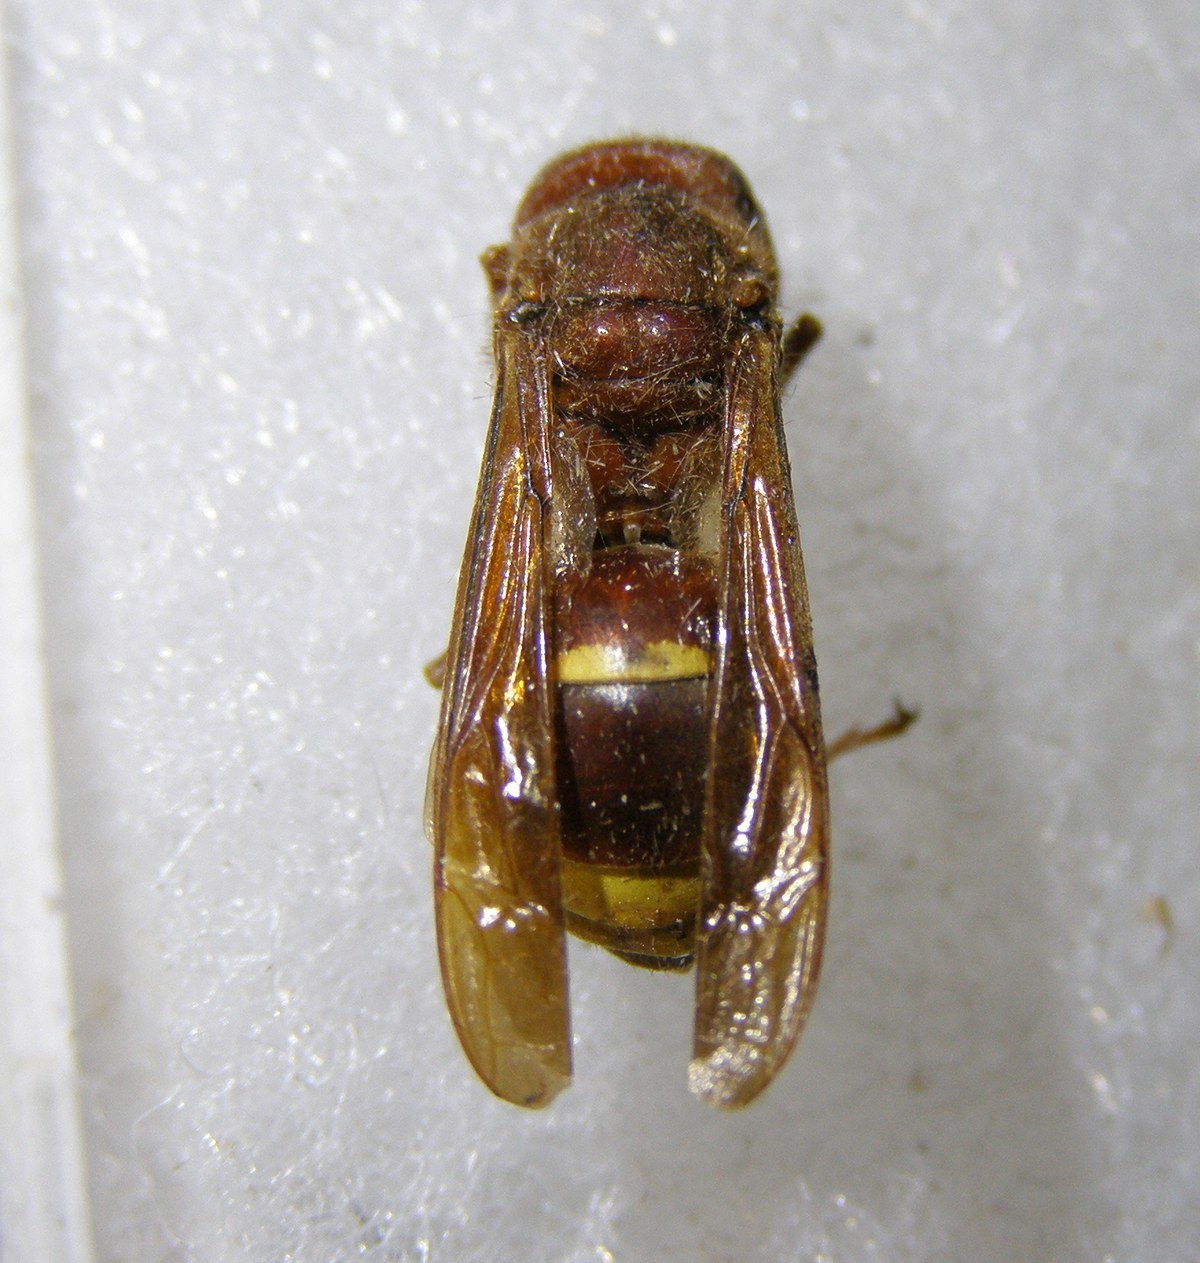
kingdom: Animalia
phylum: Arthropoda
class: Insecta
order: Hymenoptera
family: Vespidae
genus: Vespa
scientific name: Vespa orientalis
